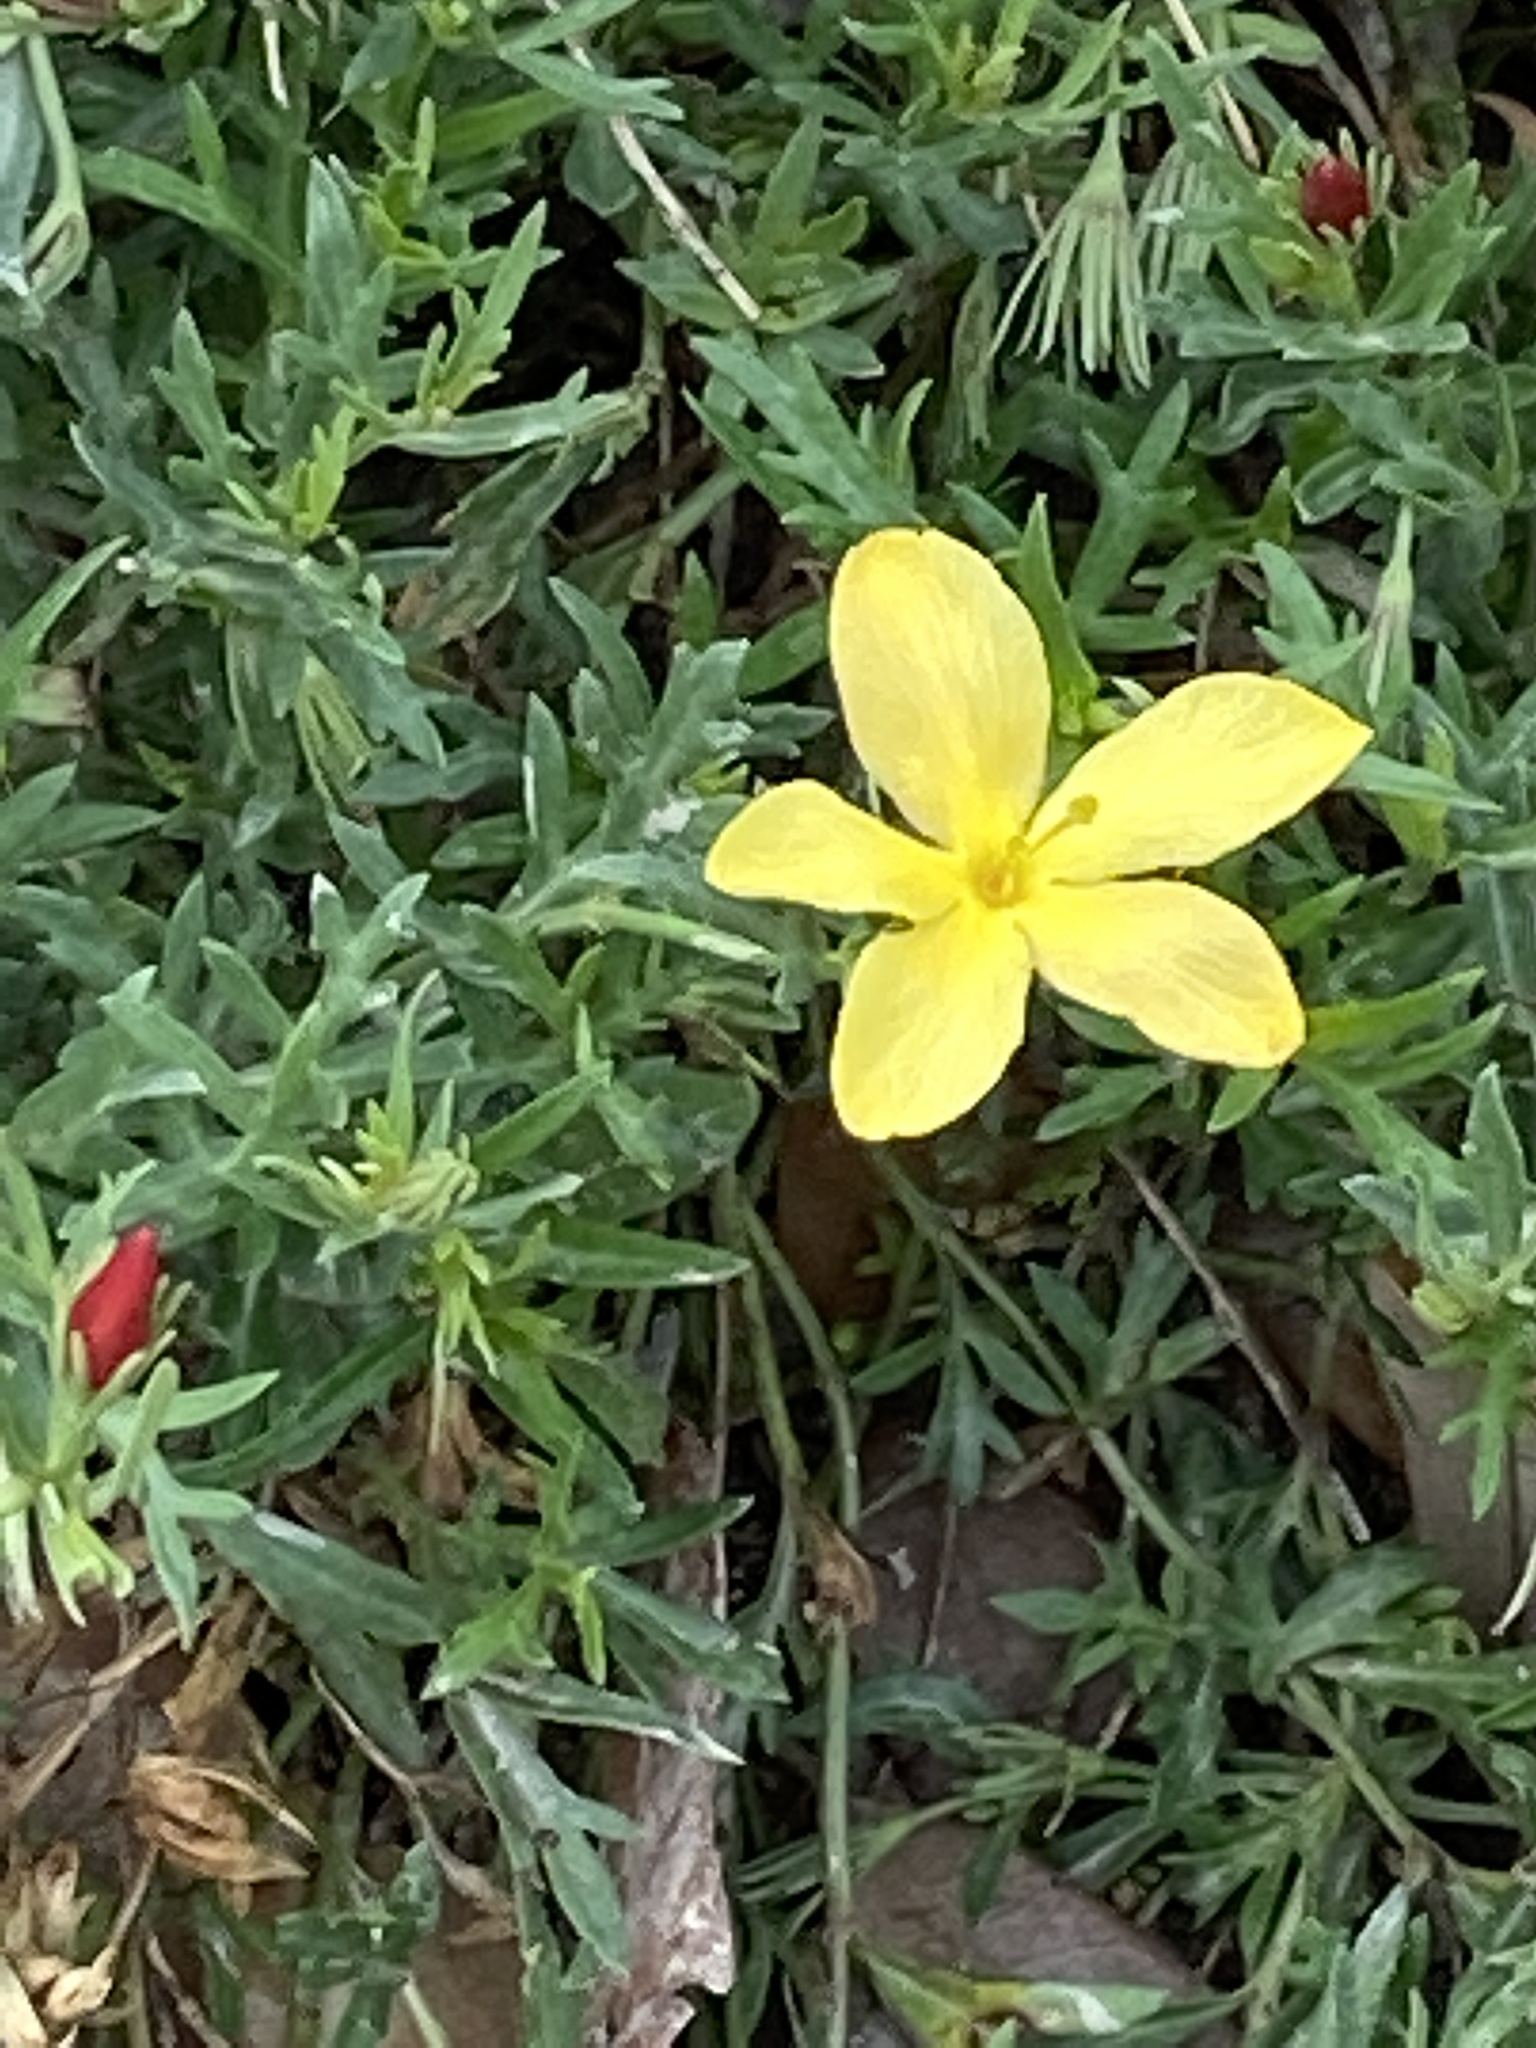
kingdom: Plantae
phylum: Tracheophyta
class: Magnoliopsida
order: Lamiales
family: Oleaceae
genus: Menodora
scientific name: Menodora heterophylla
